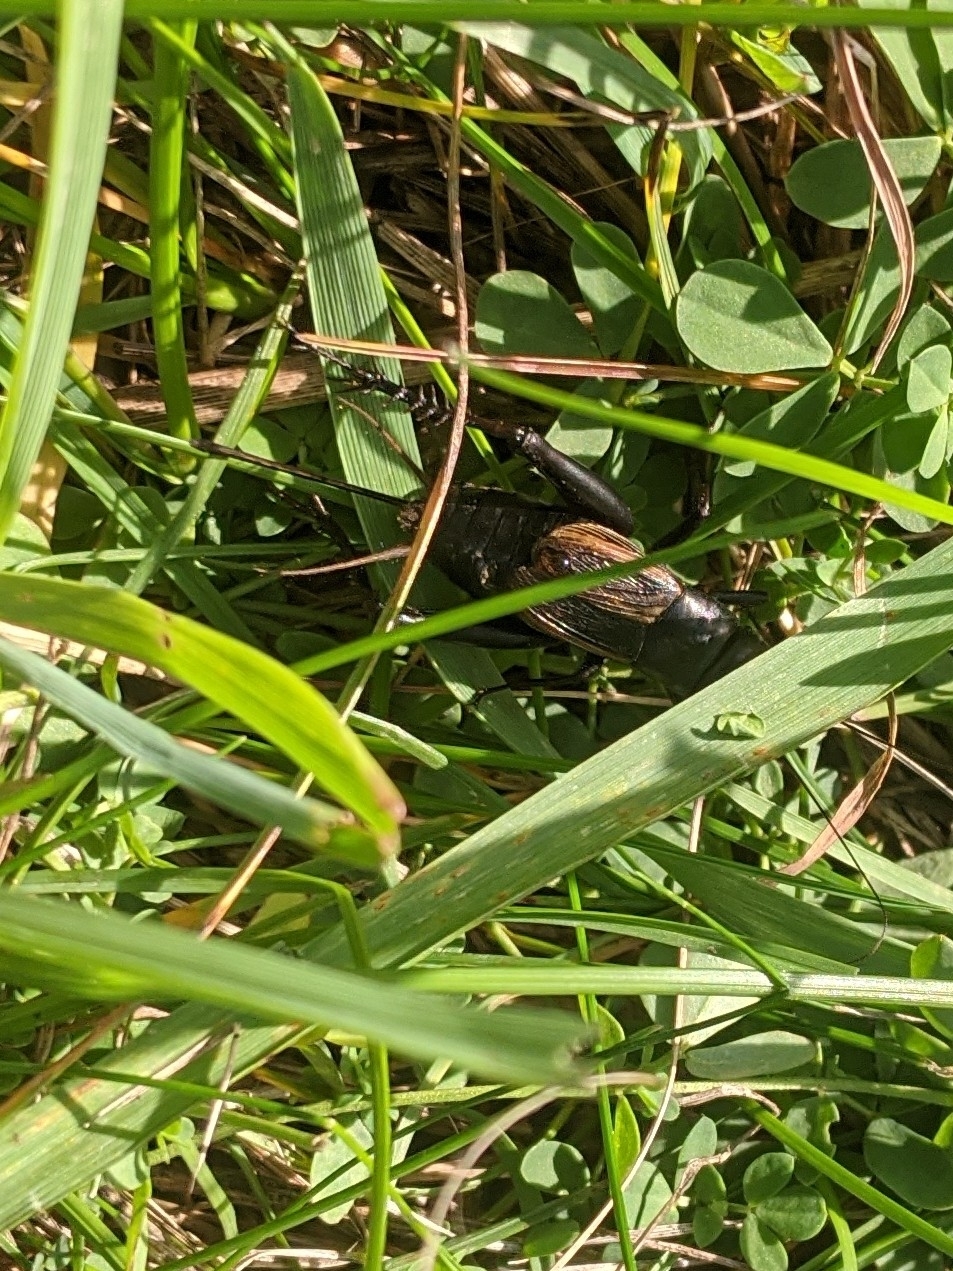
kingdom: Animalia
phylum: Arthropoda
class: Insecta
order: Orthoptera
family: Gryllidae
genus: Gryllus
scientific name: Gryllus pennsylvanicus
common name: Fall field cricket
